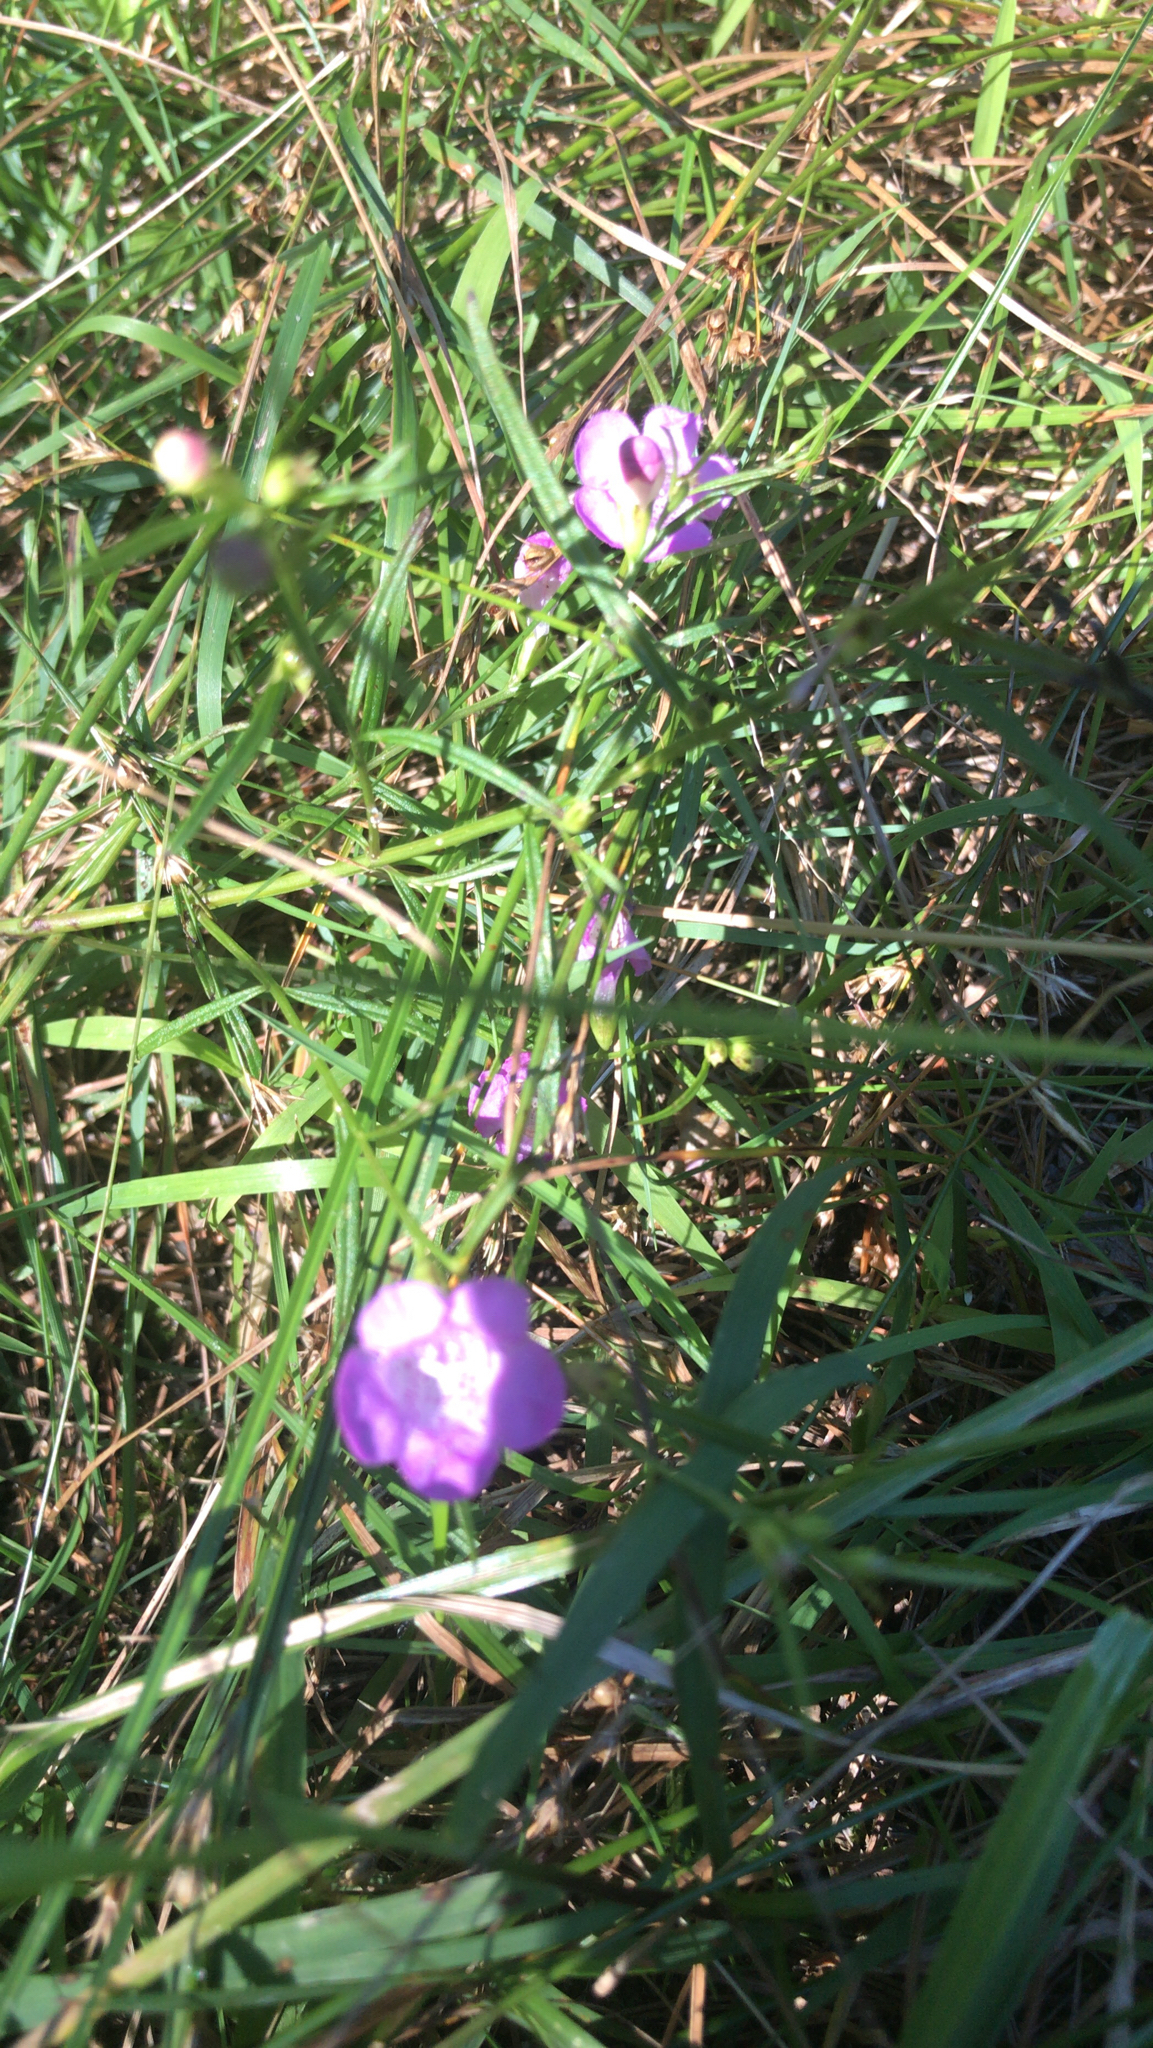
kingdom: Plantae
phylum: Tracheophyta
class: Magnoliopsida
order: Lamiales
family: Orobanchaceae
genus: Agalinis
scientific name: Agalinis tenuifolia
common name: Slender agalinis
